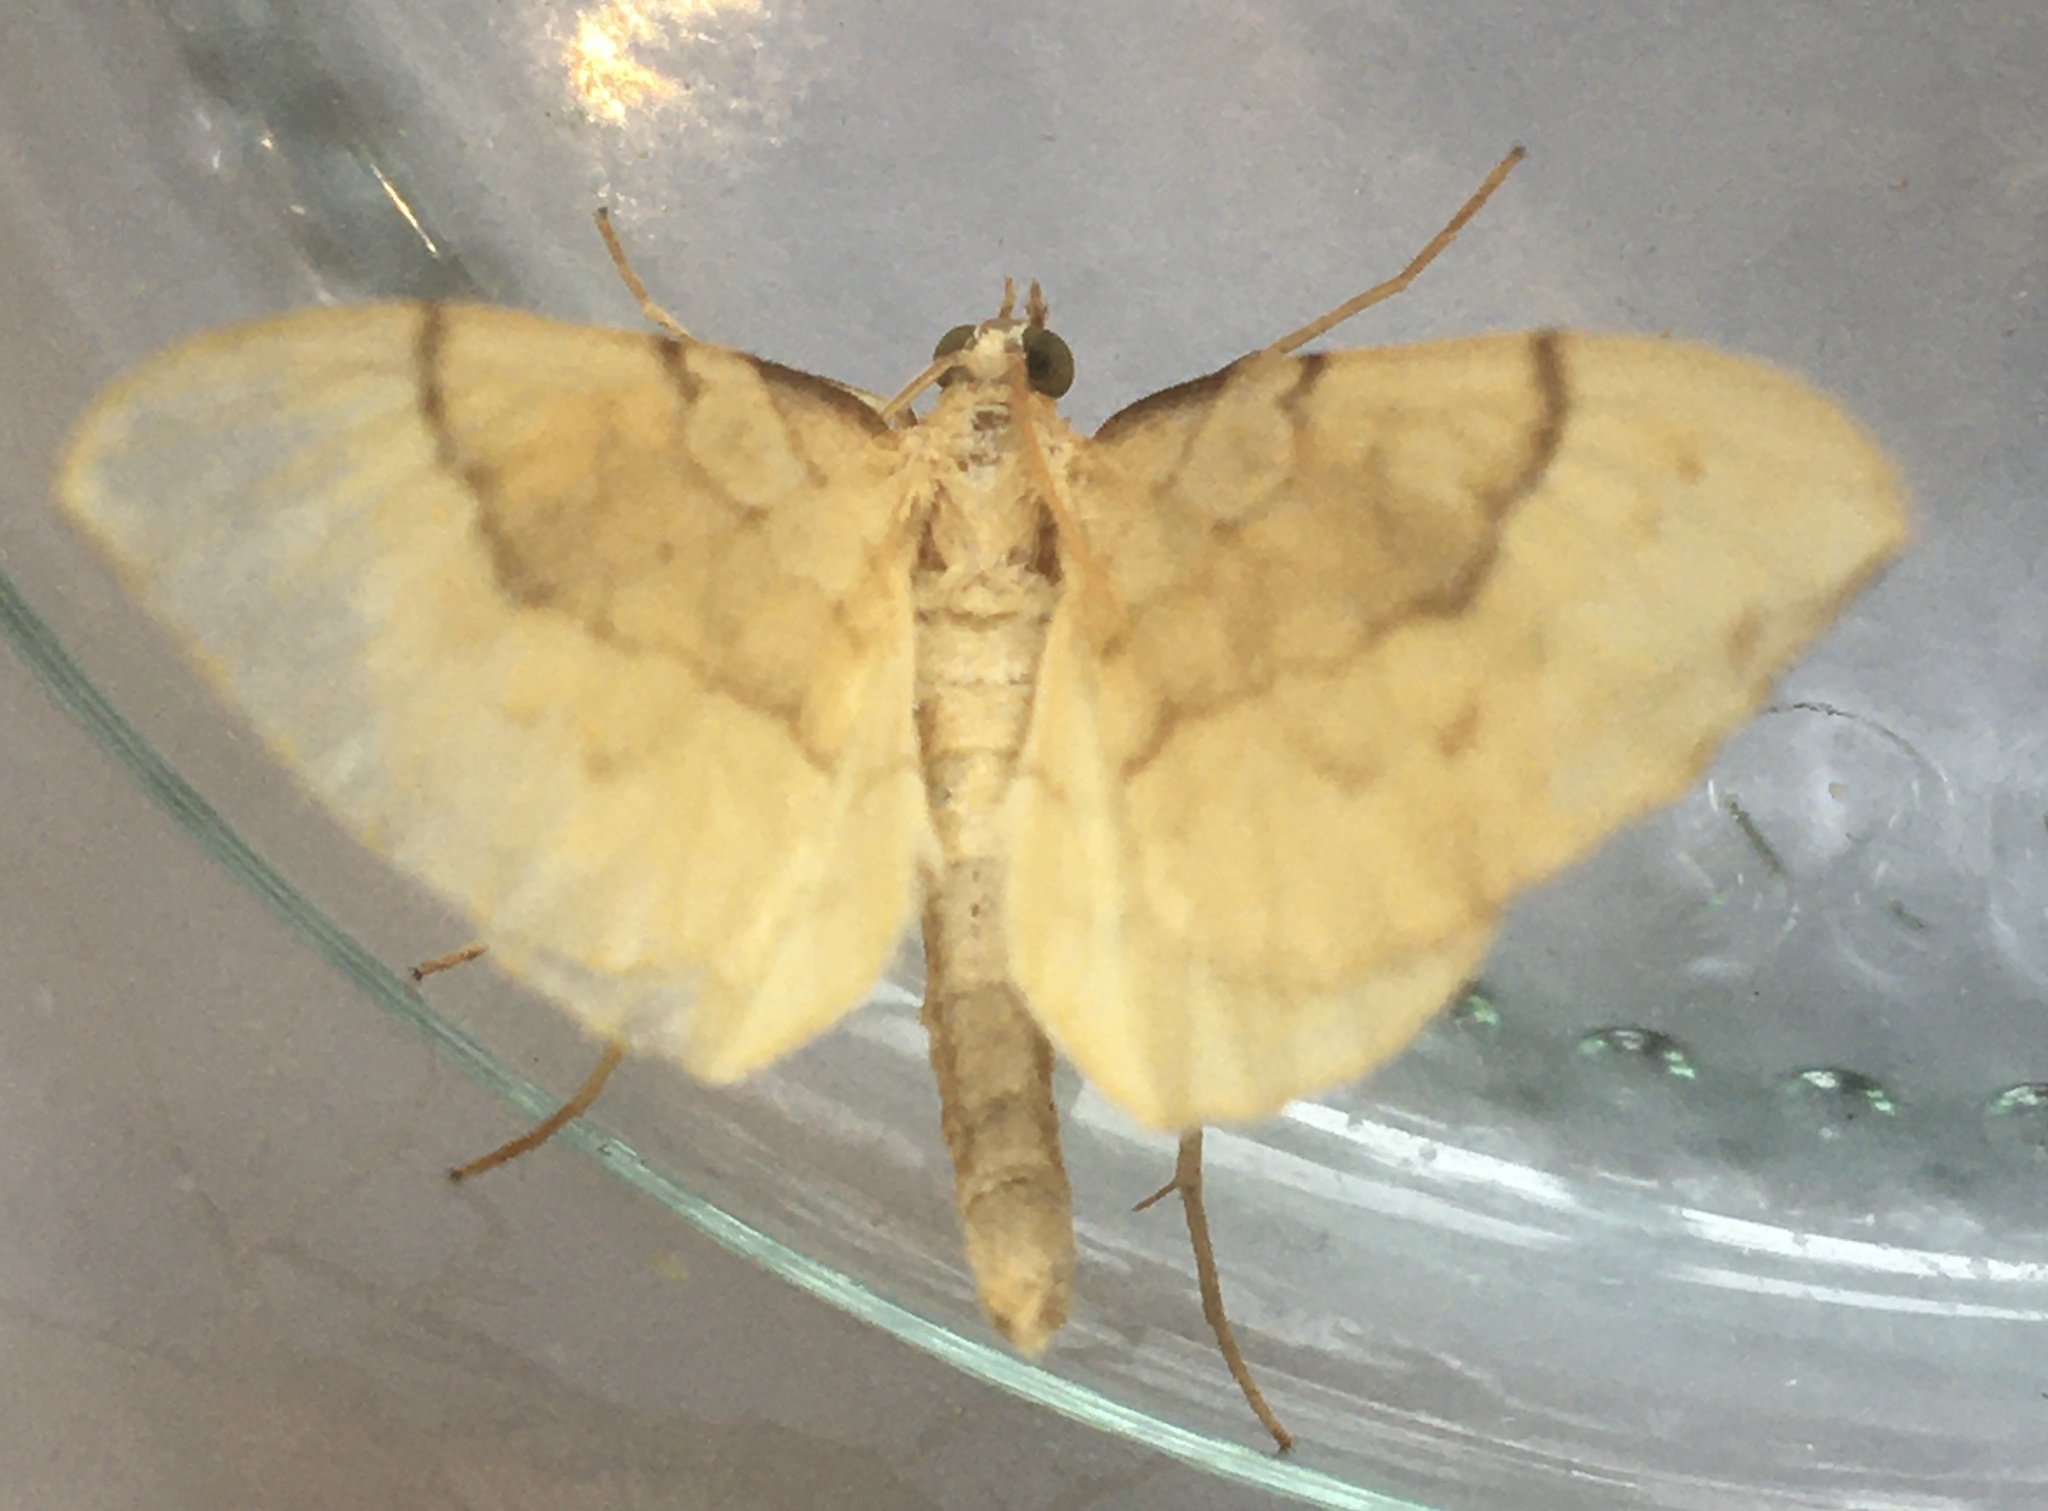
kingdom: Animalia
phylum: Arthropoda
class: Insecta
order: Lepidoptera
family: Geometridae
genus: Eulithis
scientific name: Eulithis pyraliata
